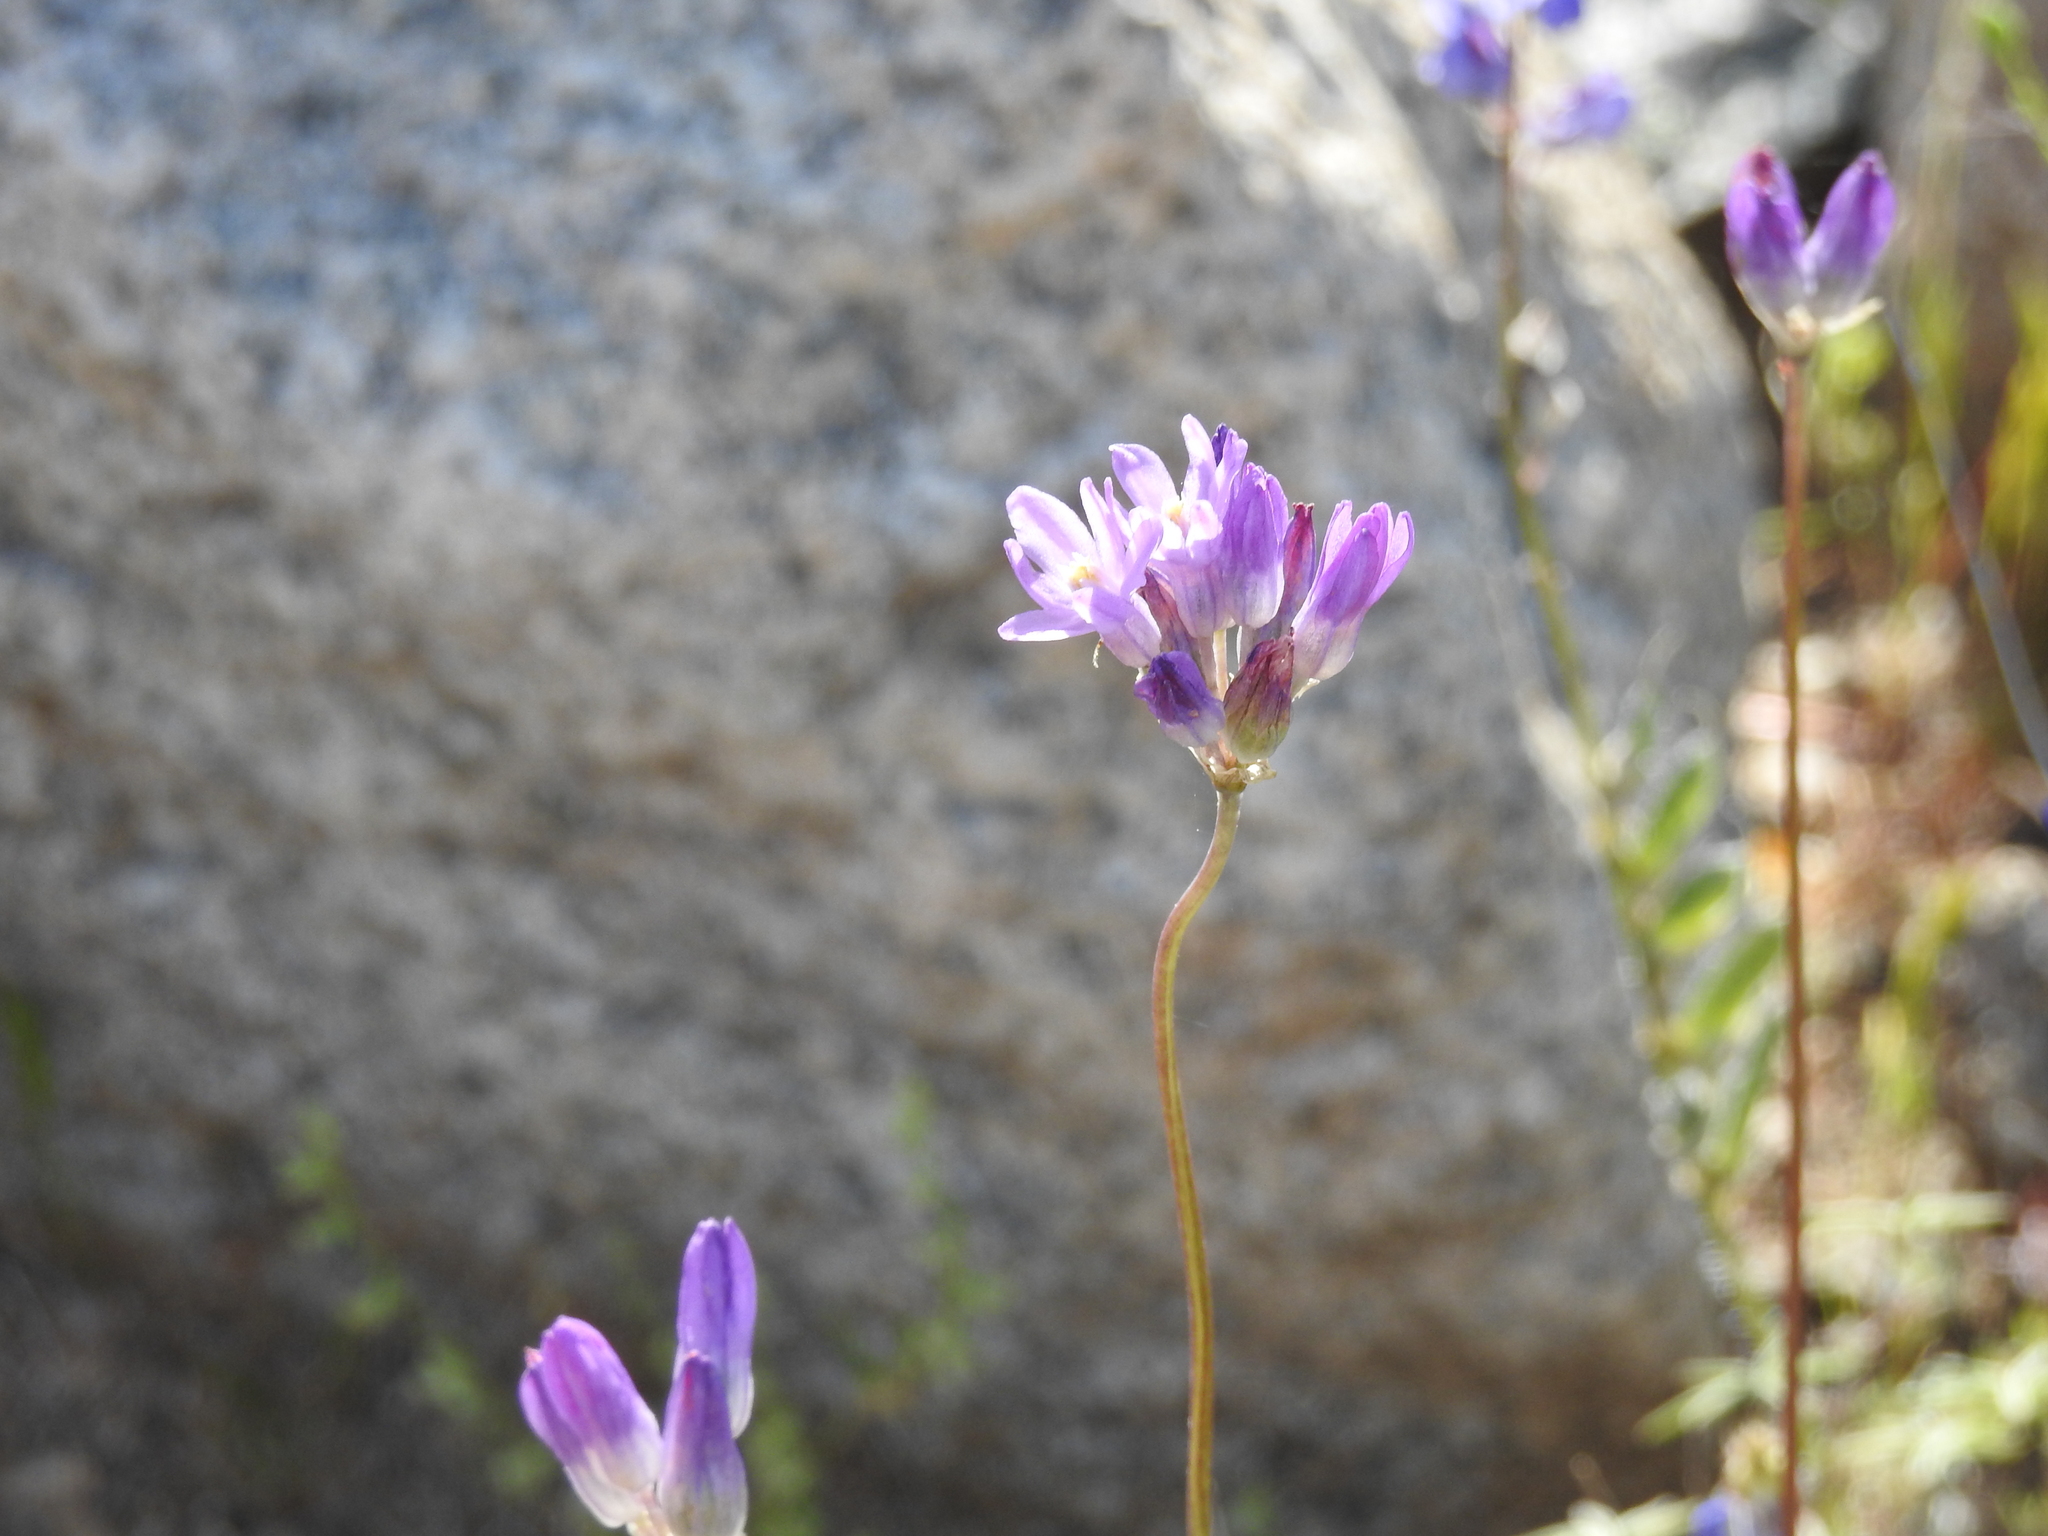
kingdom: Plantae
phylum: Tracheophyta
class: Liliopsida
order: Asparagales
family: Asparagaceae
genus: Dipterostemon
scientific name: Dipterostemon capitatus
